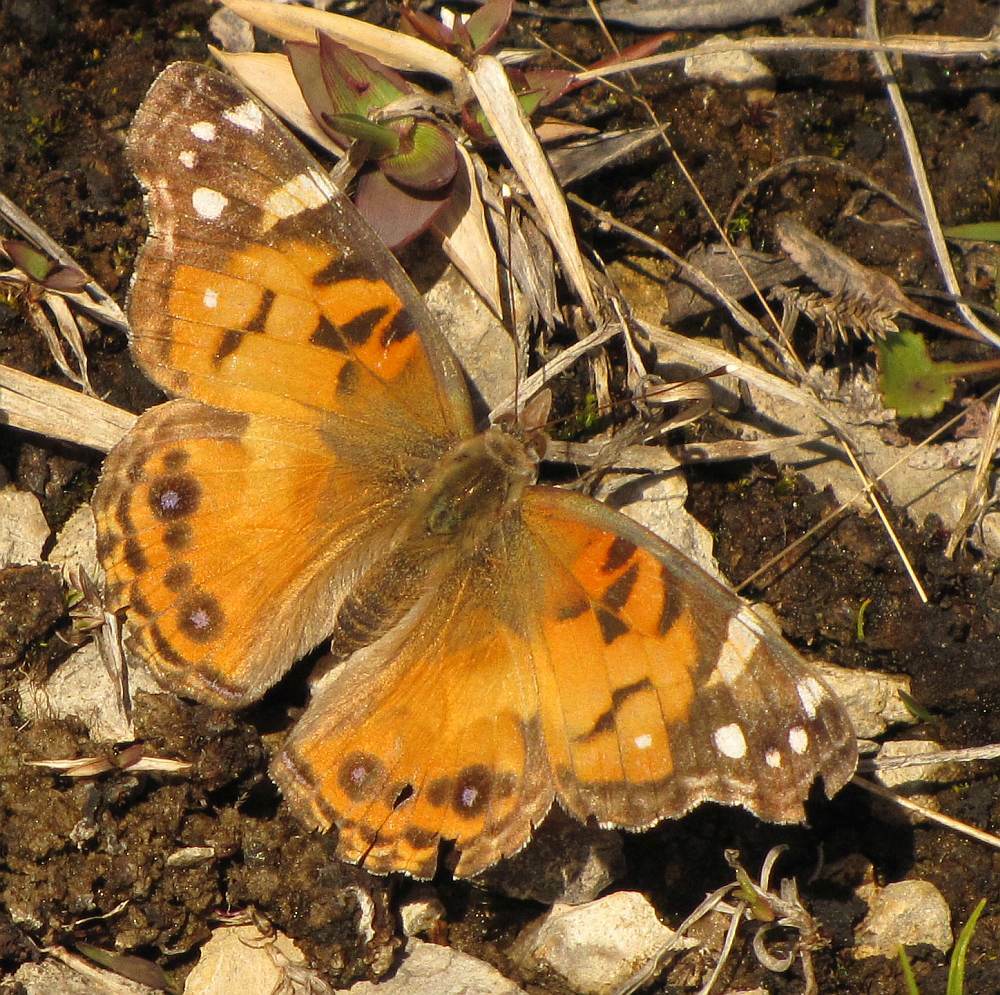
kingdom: Animalia
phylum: Arthropoda
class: Insecta
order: Lepidoptera
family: Nymphalidae
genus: Vanessa
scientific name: Vanessa virginiensis
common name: American lady
